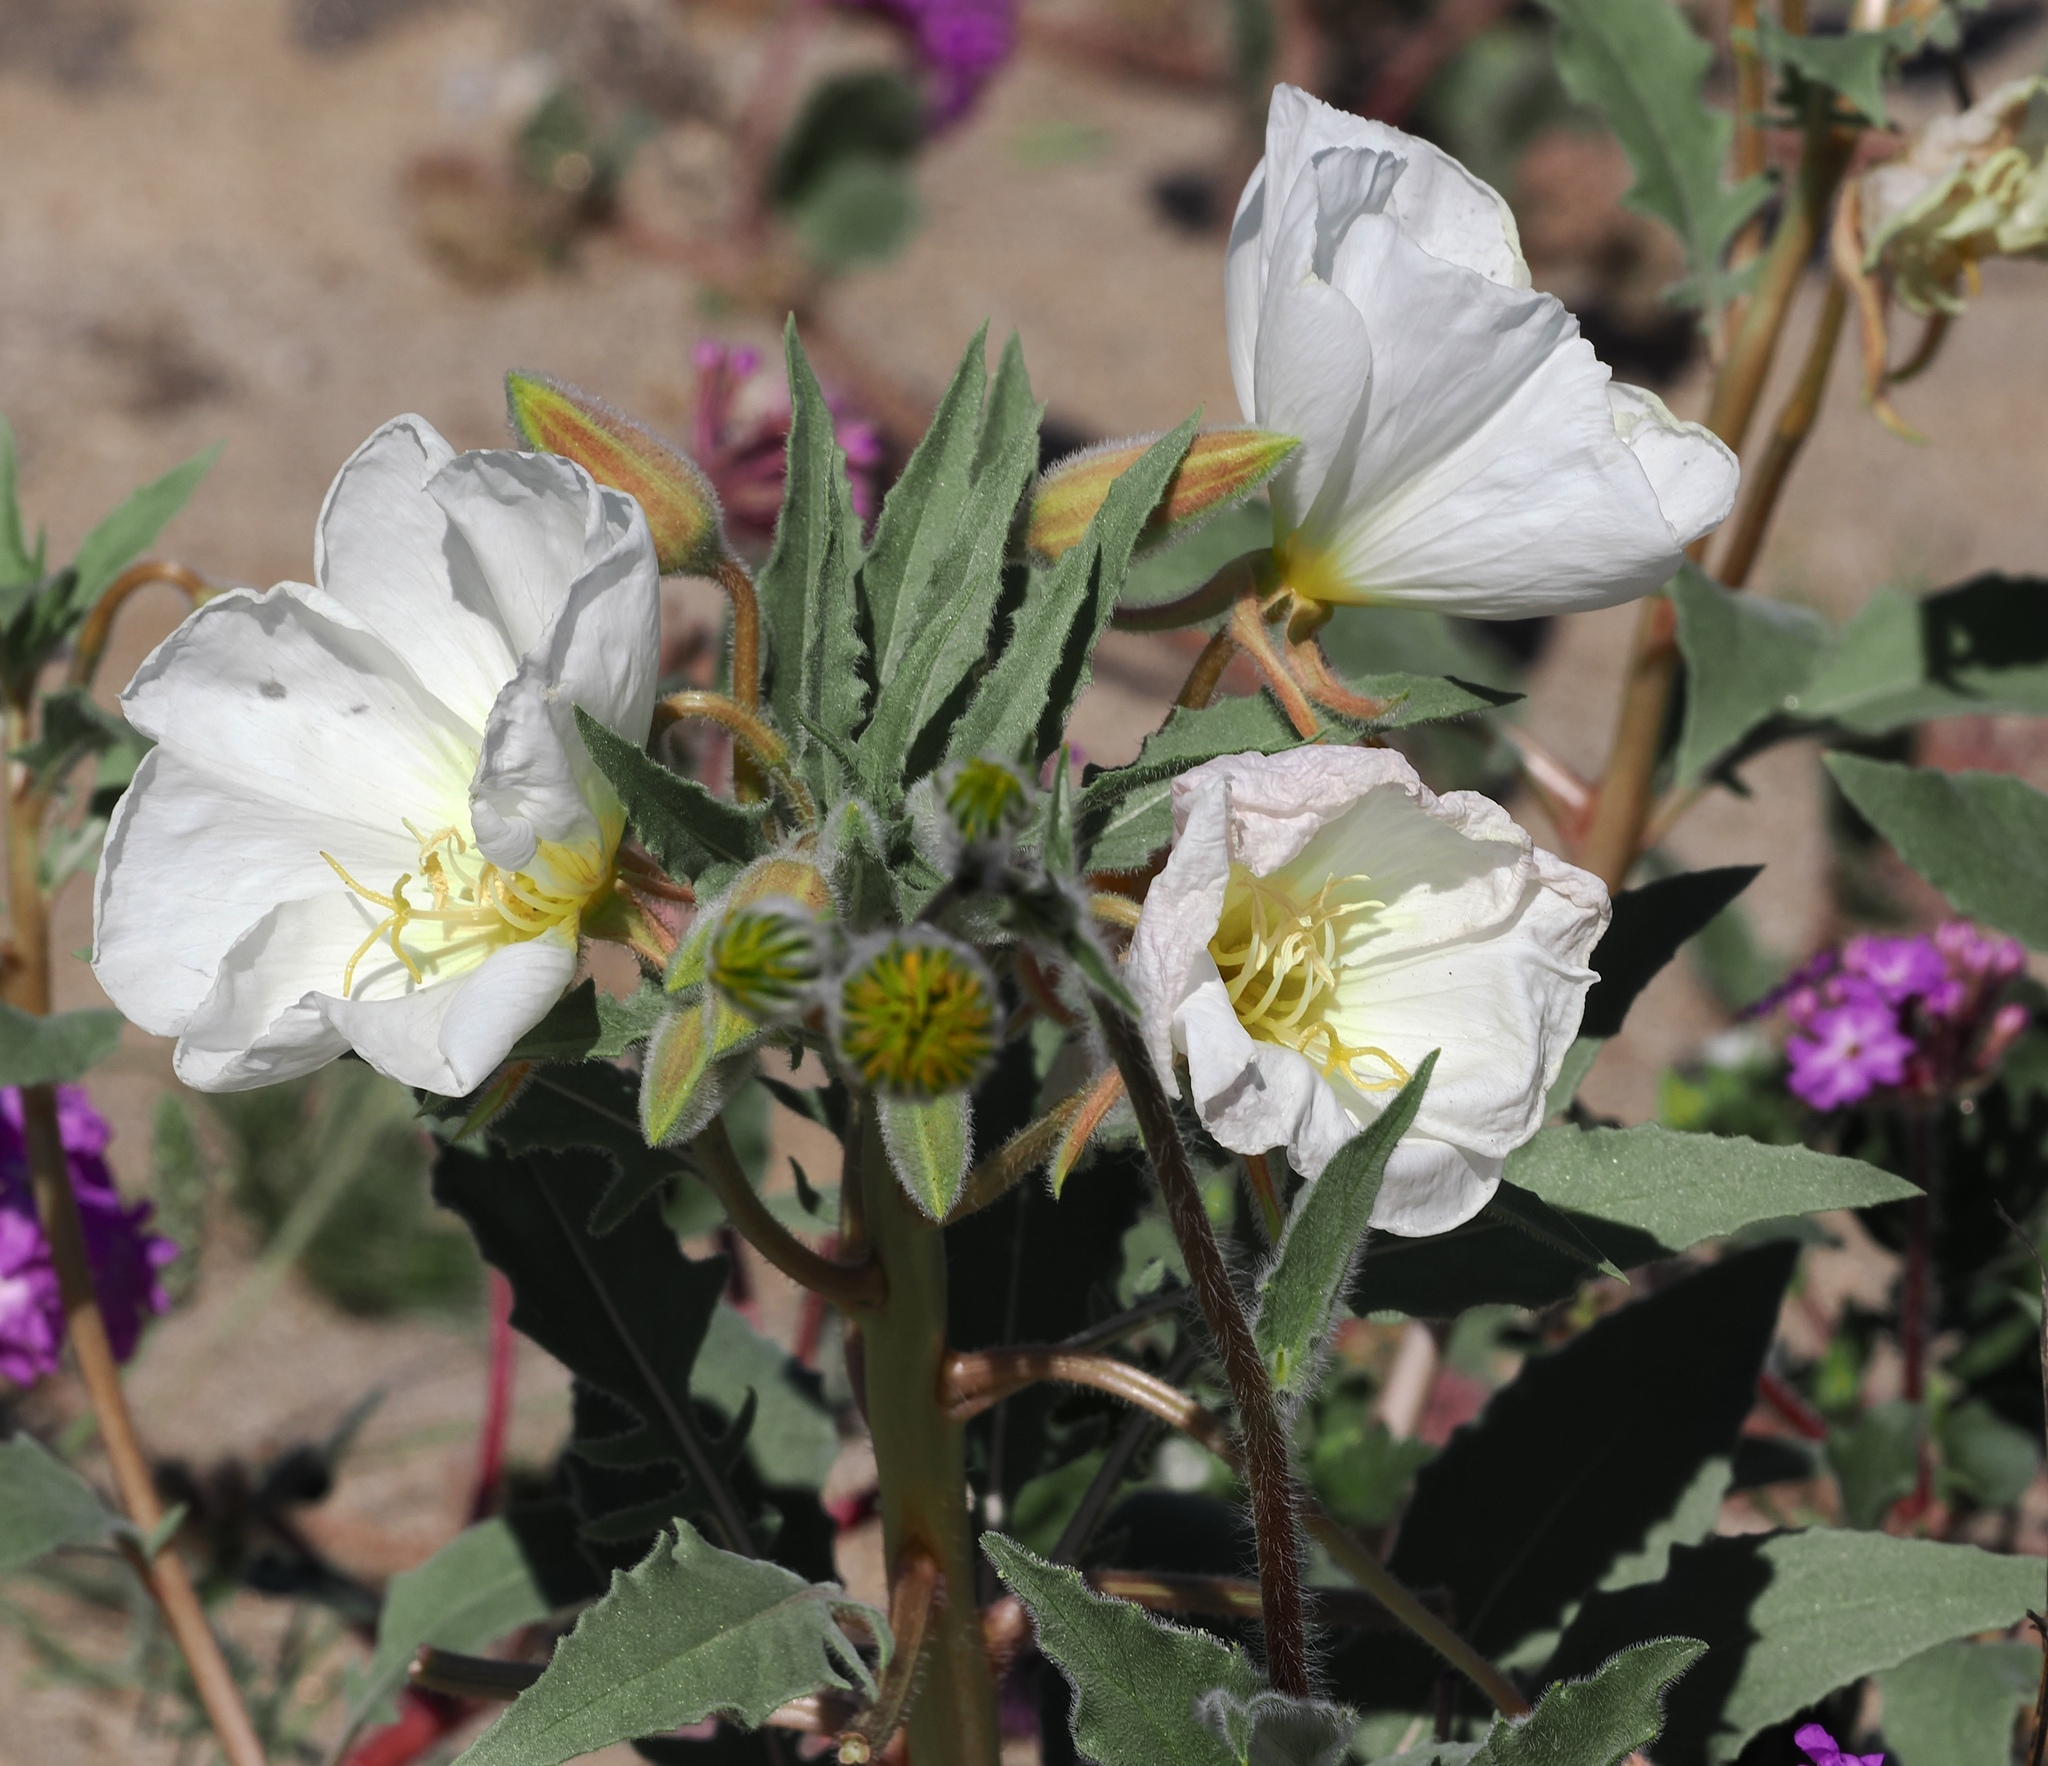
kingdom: Plantae
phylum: Tracheophyta
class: Magnoliopsida
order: Myrtales
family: Onagraceae
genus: Oenothera
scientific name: Oenothera deltoides
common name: Basket evening-primrose
